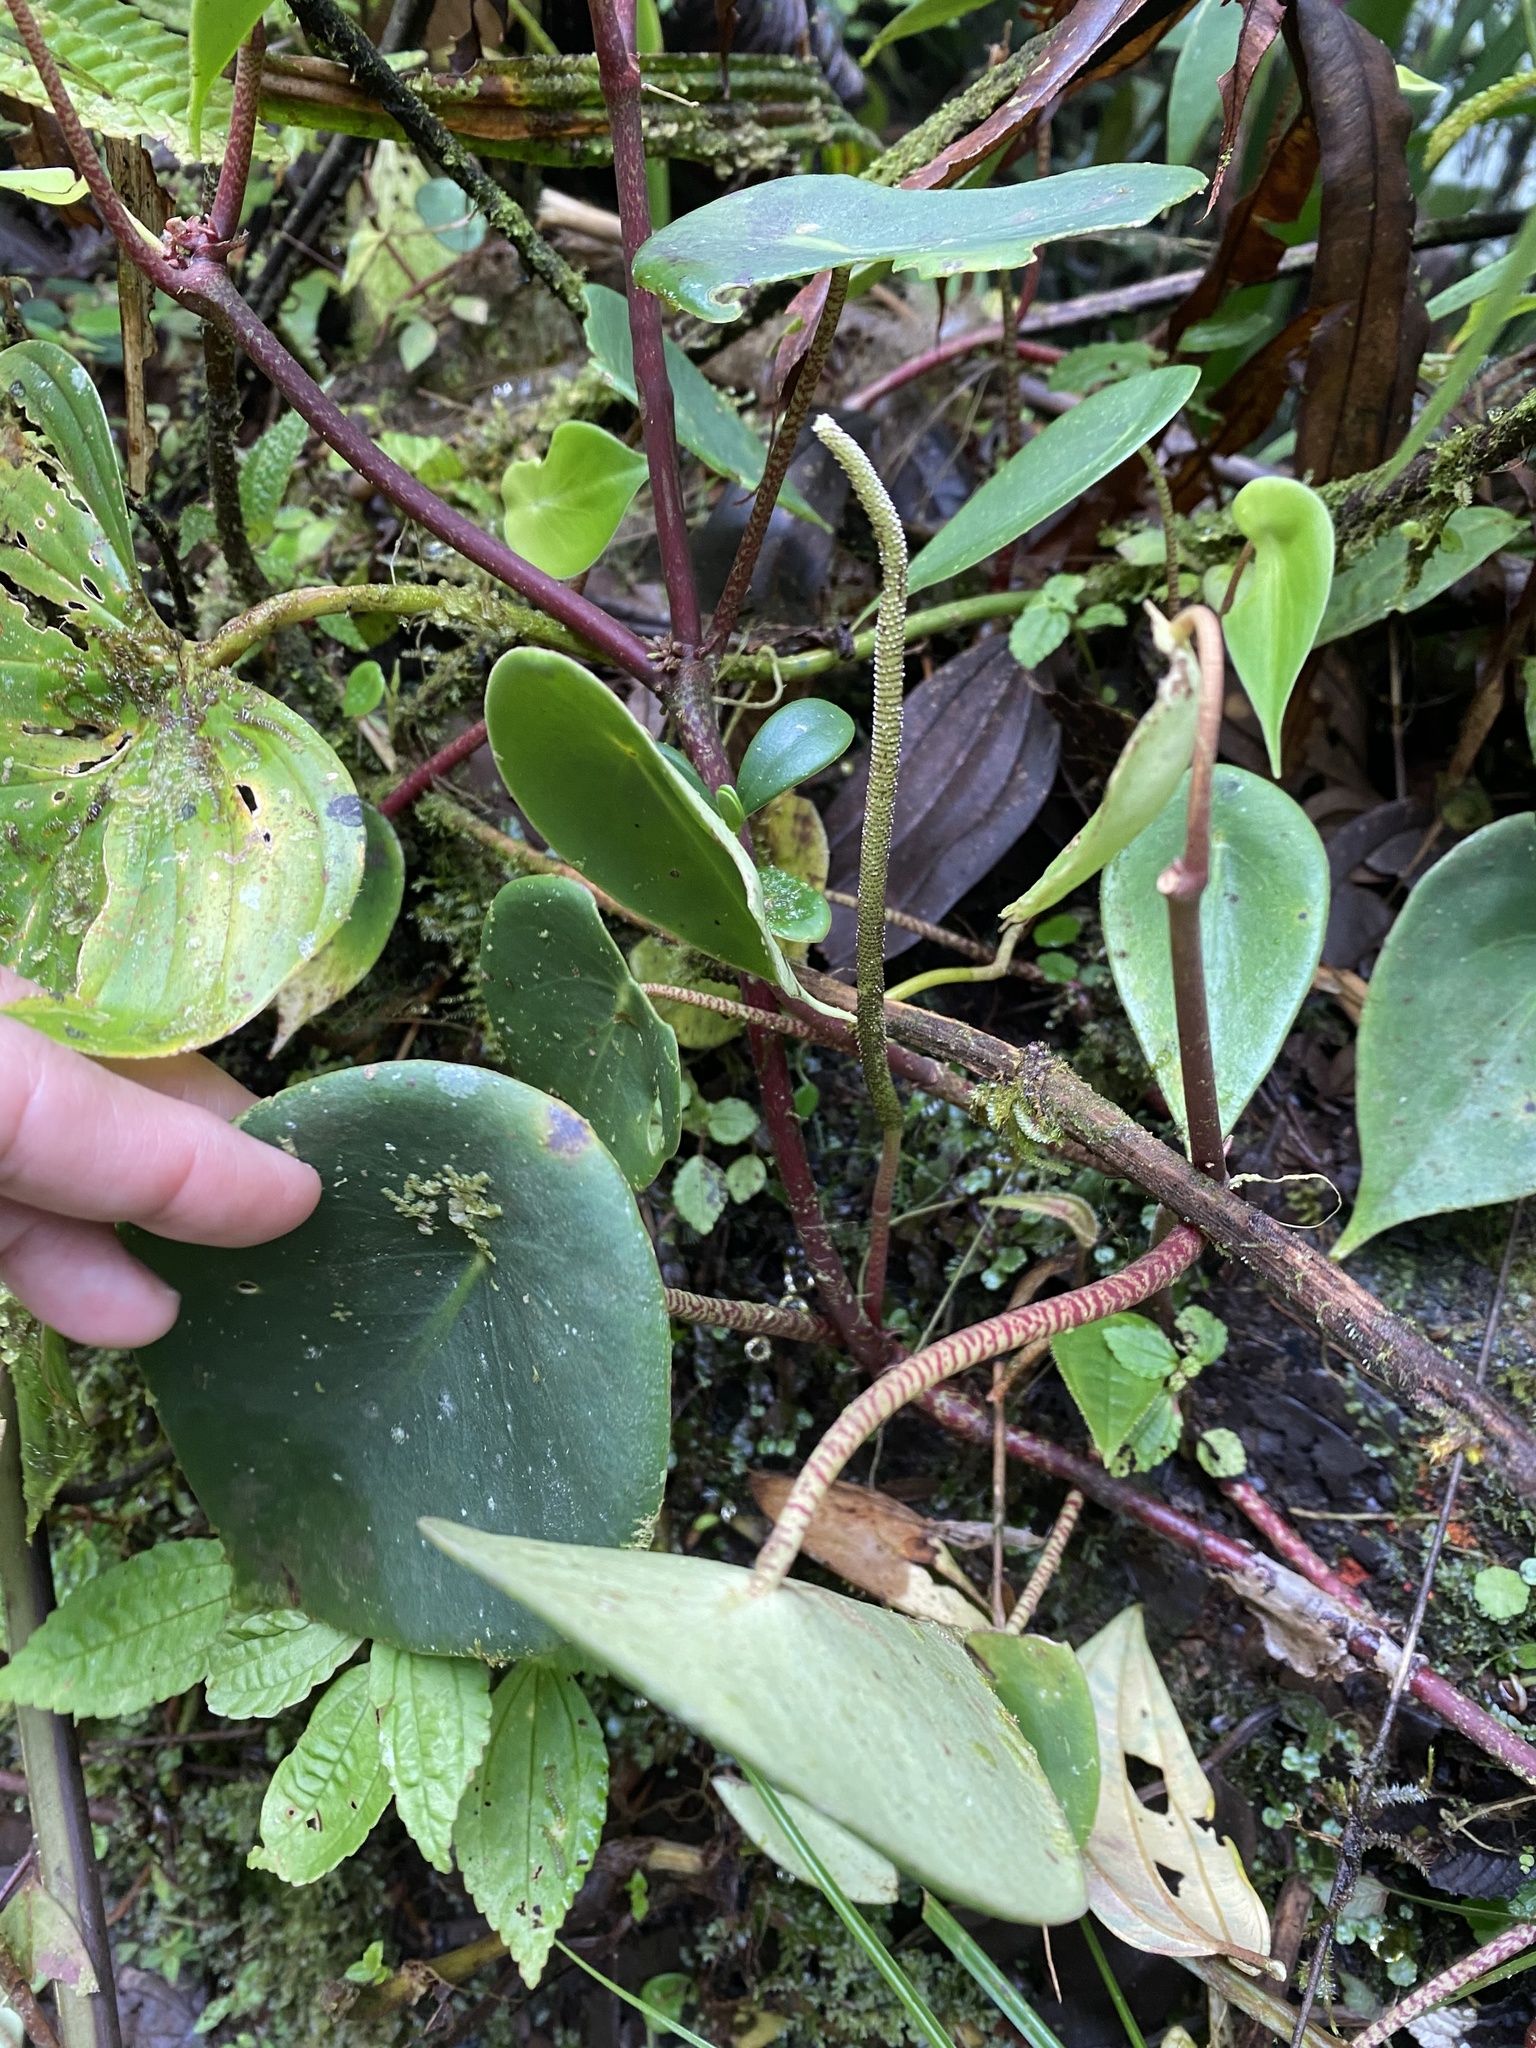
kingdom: Plantae
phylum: Tracheophyta
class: Magnoliopsida
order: Piperales
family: Piperaceae
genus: Peperomia
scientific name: Peperomia hernandiifolia
